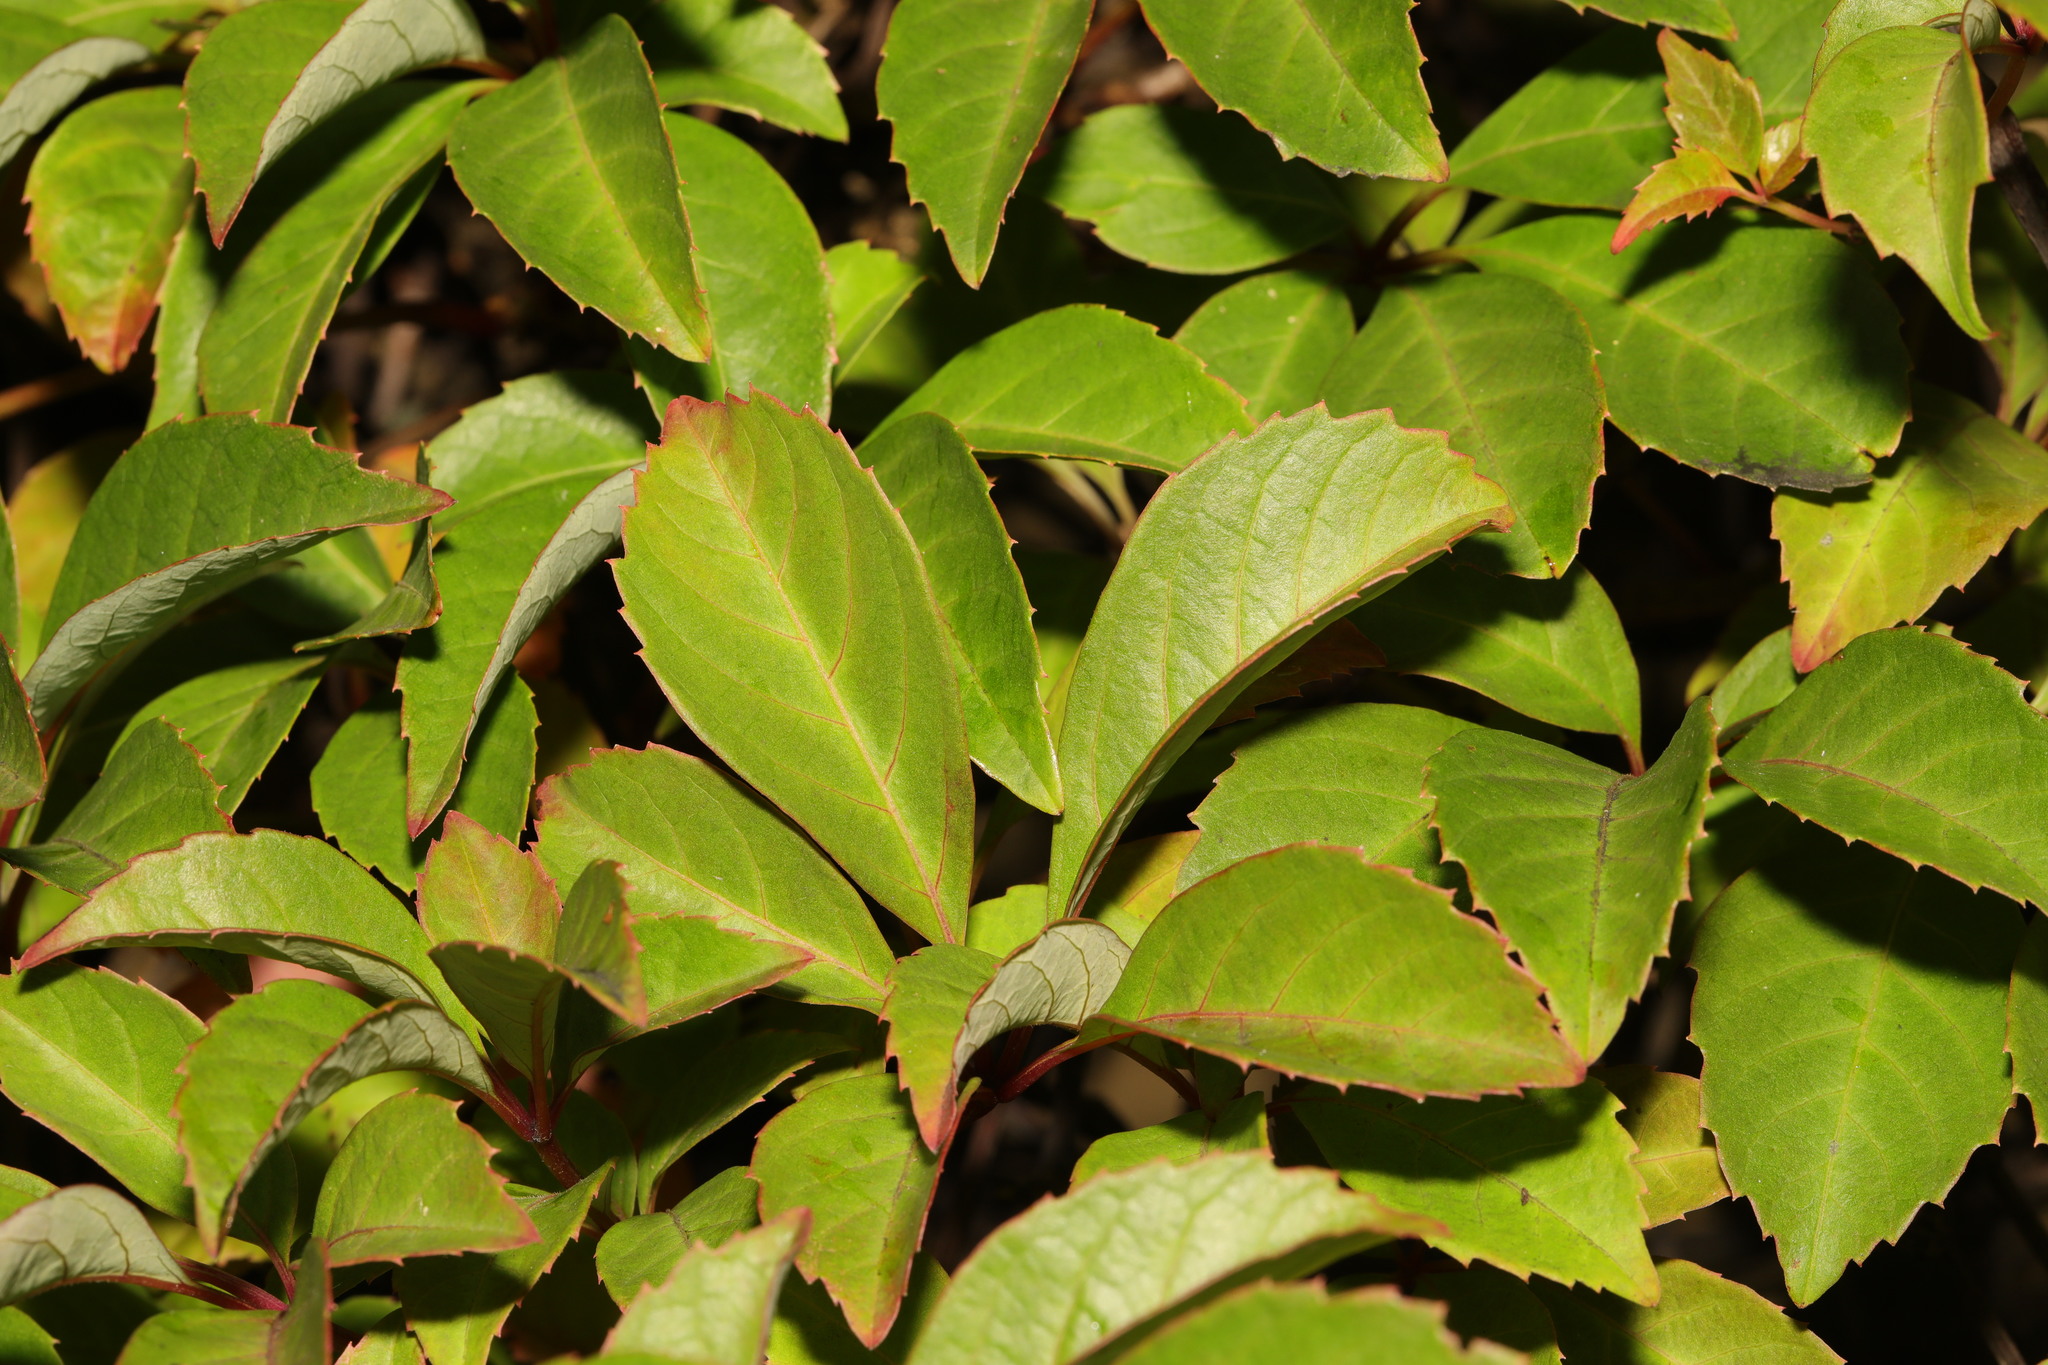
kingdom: Plantae
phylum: Tracheophyta
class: Magnoliopsida
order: Vitales
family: Vitaceae
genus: Parthenocissus
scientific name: Parthenocissus henryana
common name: Chinese virginia-creeper
